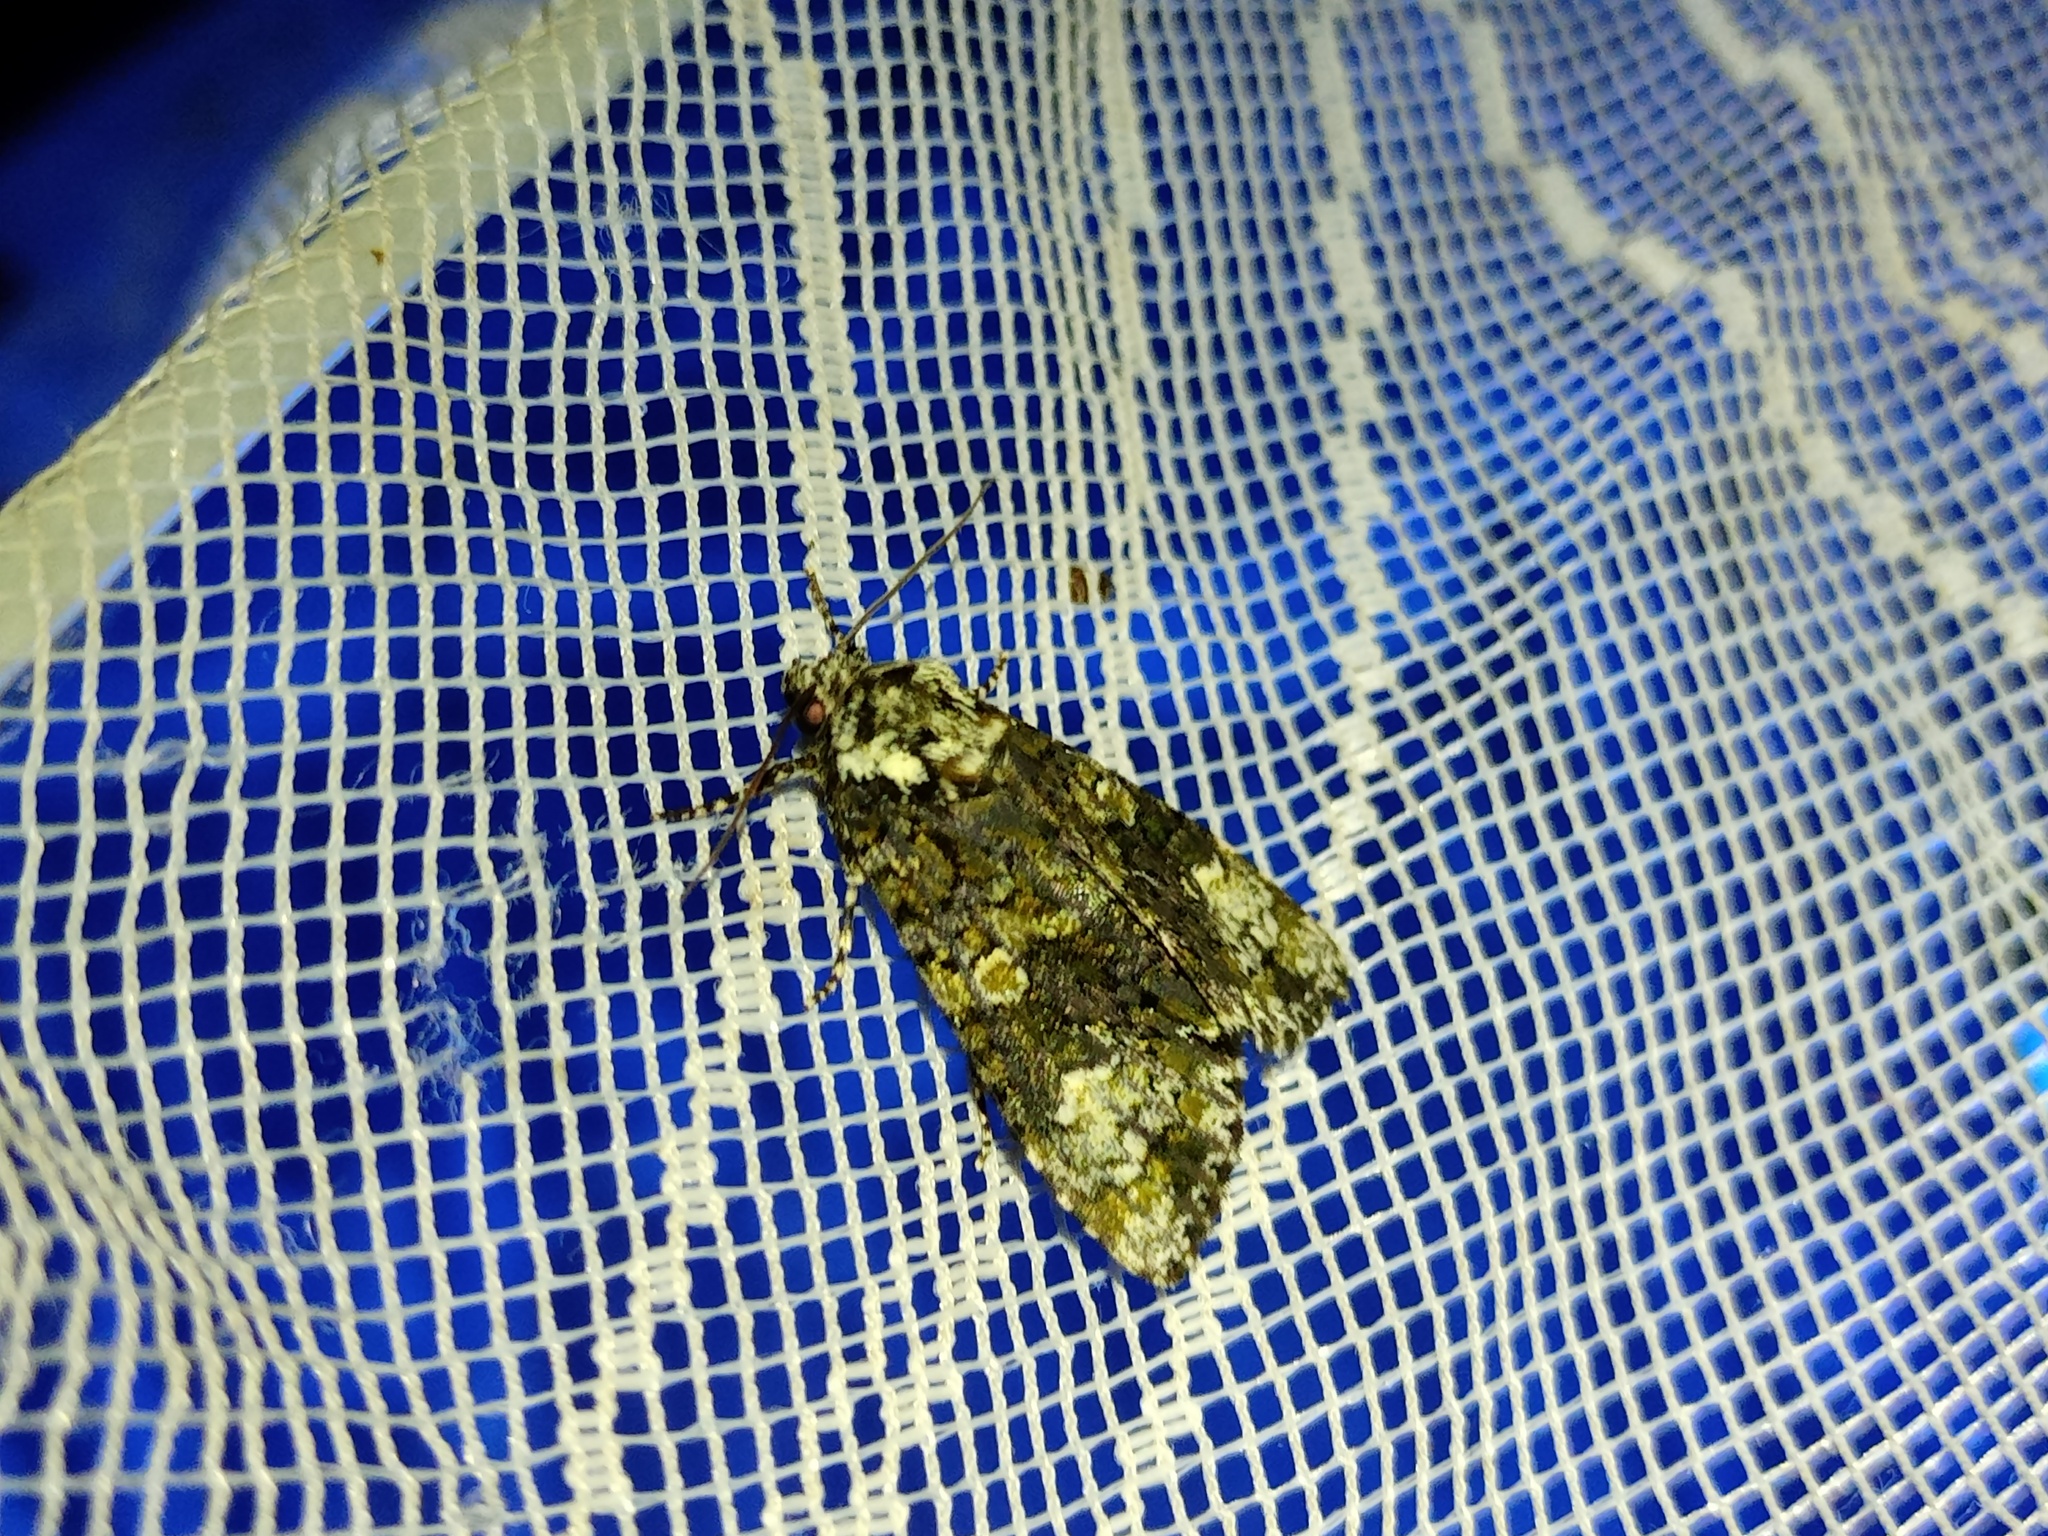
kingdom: Animalia
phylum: Arthropoda
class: Insecta
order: Lepidoptera
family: Noctuidae
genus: Craniophora
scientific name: Craniophora ligustri
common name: Coronet
